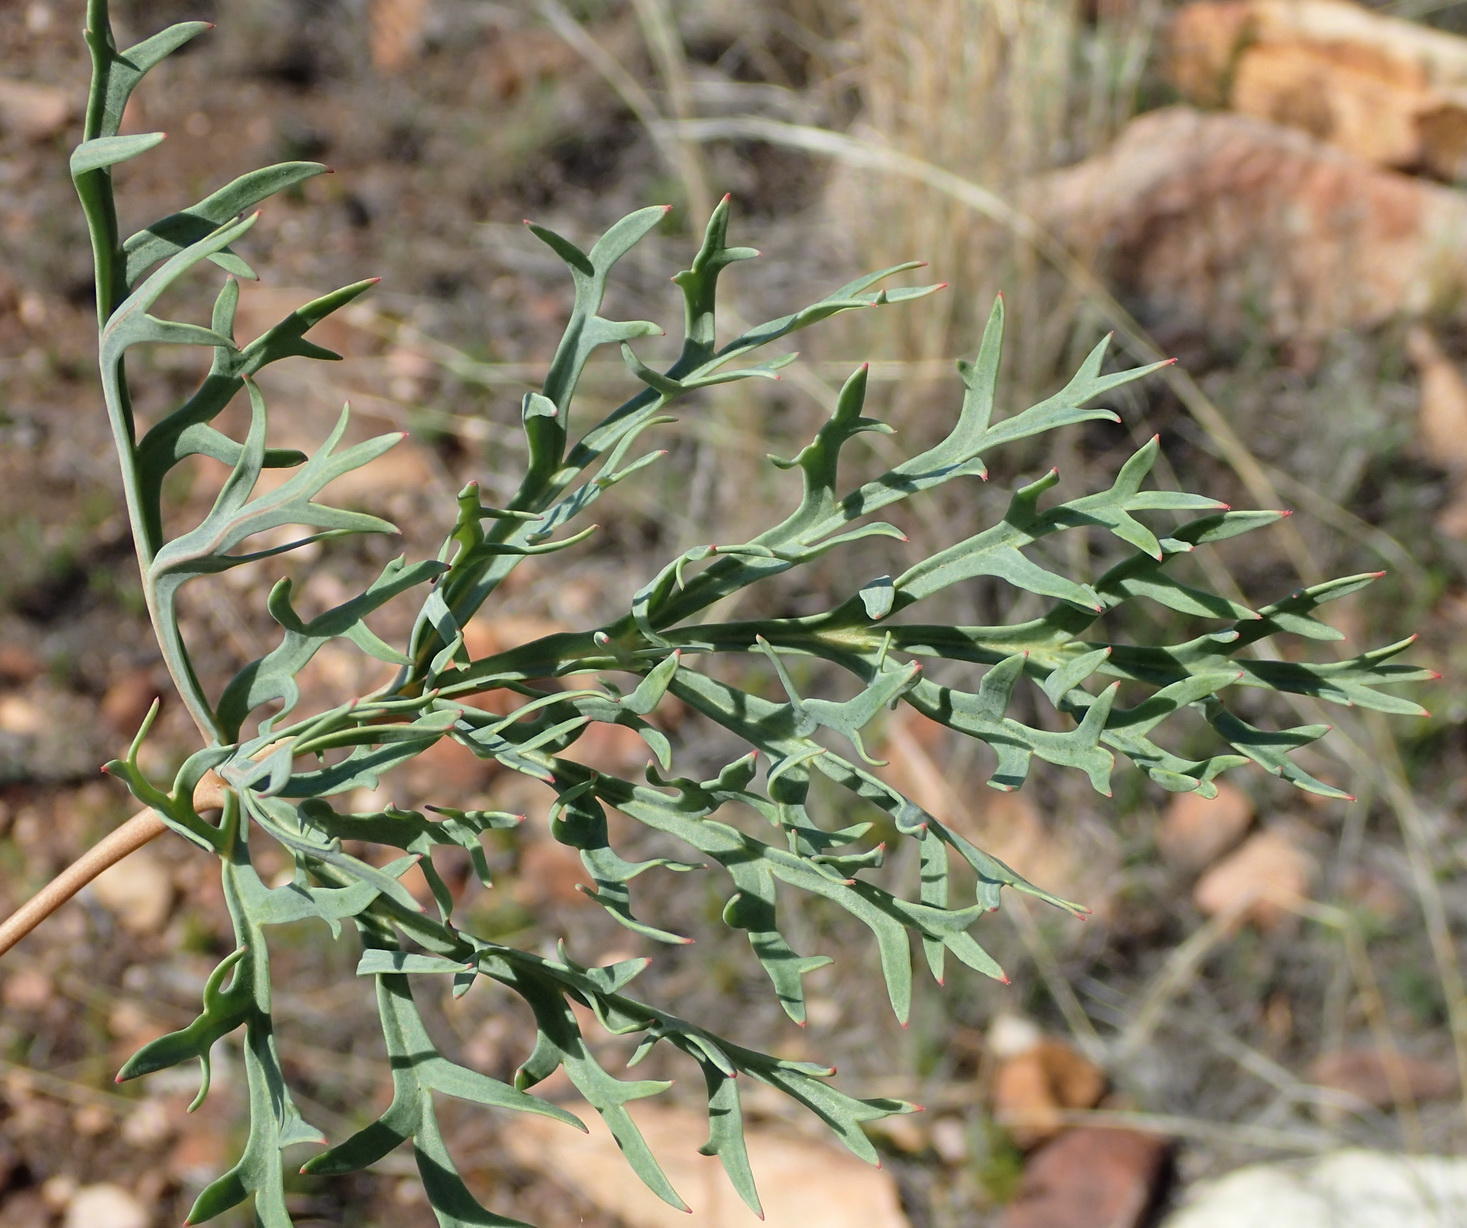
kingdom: Plantae
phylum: Tracheophyta
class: Magnoliopsida
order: Geraniales
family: Geraniaceae
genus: Pelargonium
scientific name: Pelargonium pillansii
